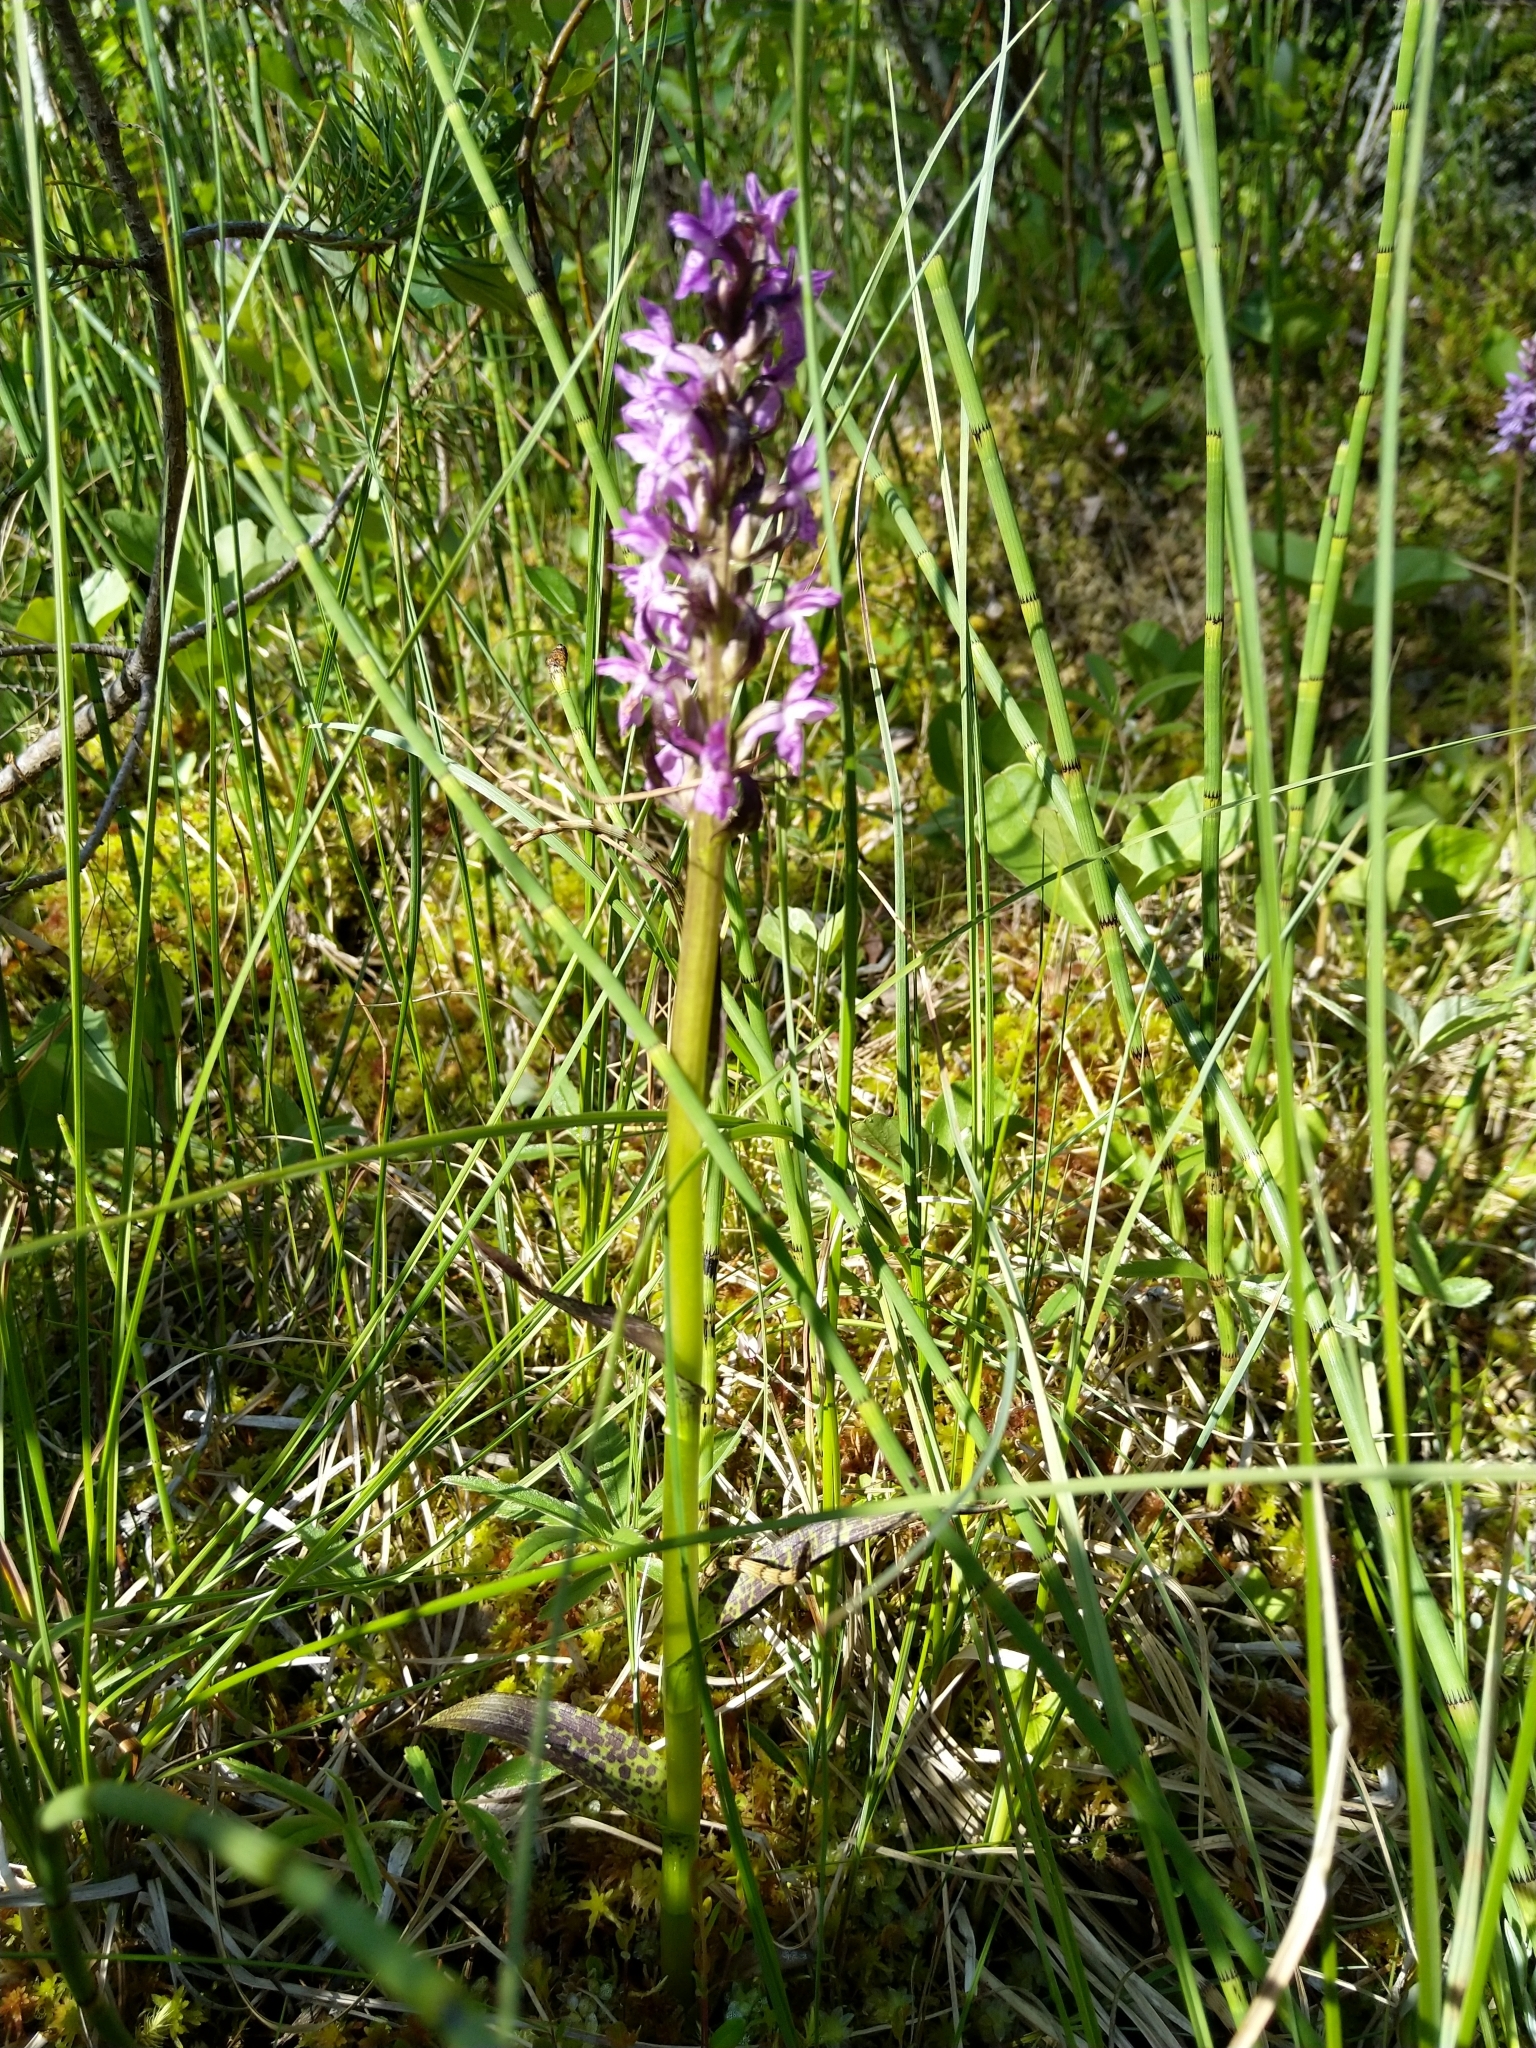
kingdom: Plantae
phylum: Tracheophyta
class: Liliopsida
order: Asparagales
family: Orchidaceae
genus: Dactylorhiza
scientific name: Dactylorhiza incarnata
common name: Early marsh-orchid
